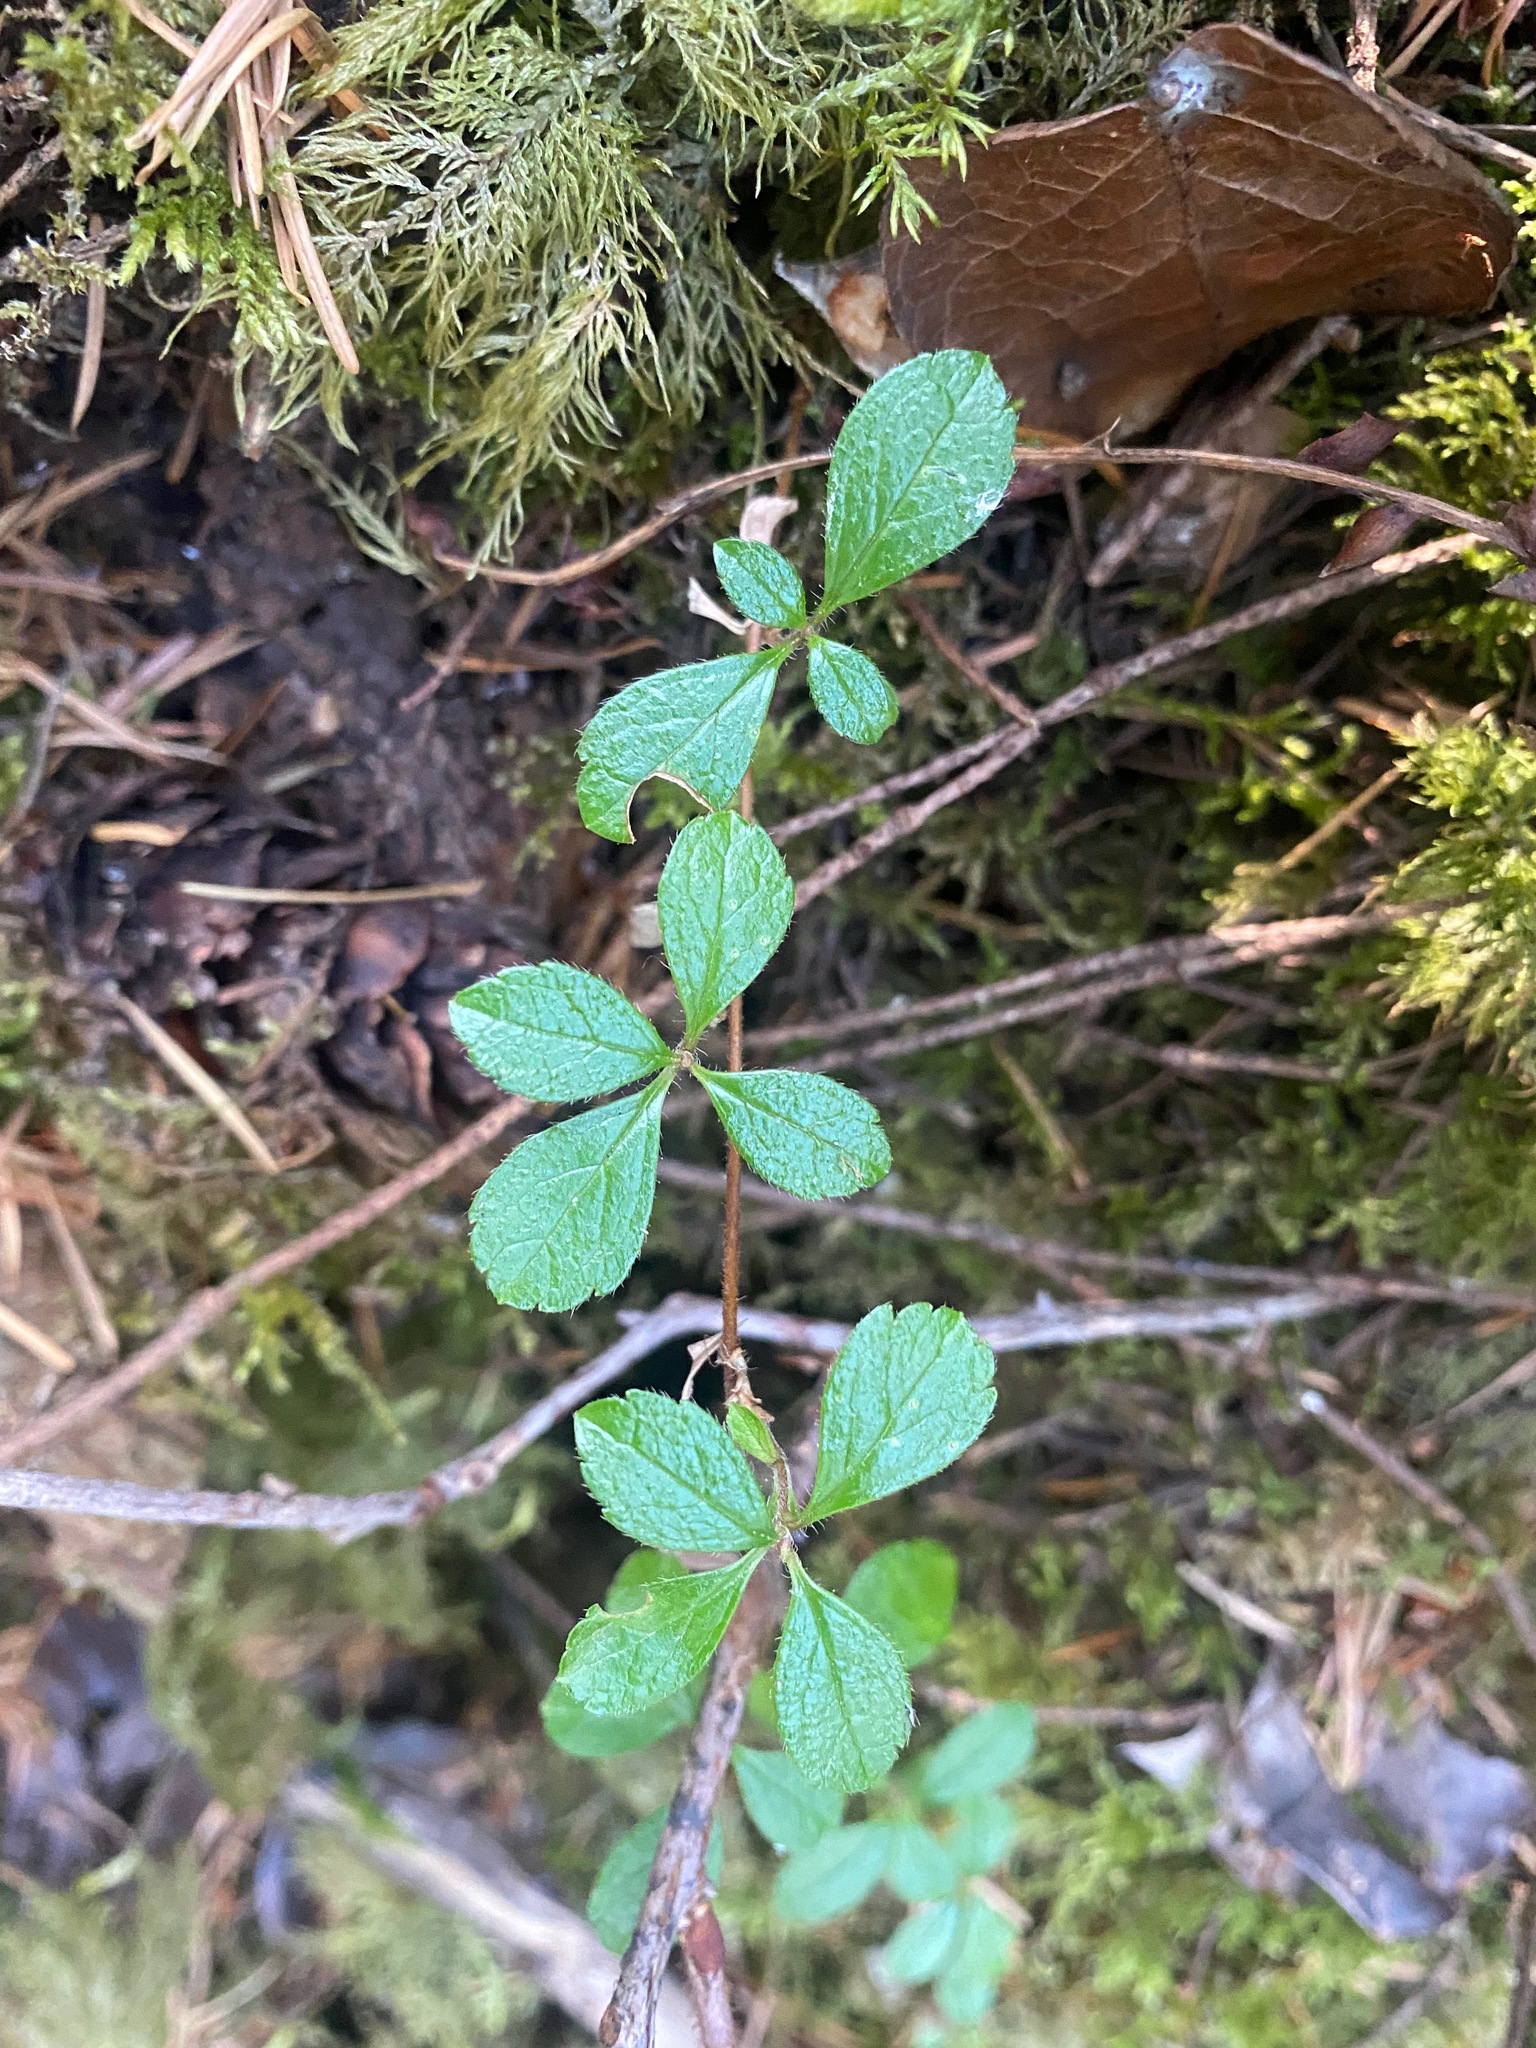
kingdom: Plantae
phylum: Tracheophyta
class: Magnoliopsida
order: Dipsacales
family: Caprifoliaceae
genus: Linnaea
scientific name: Linnaea borealis
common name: Twinflower
